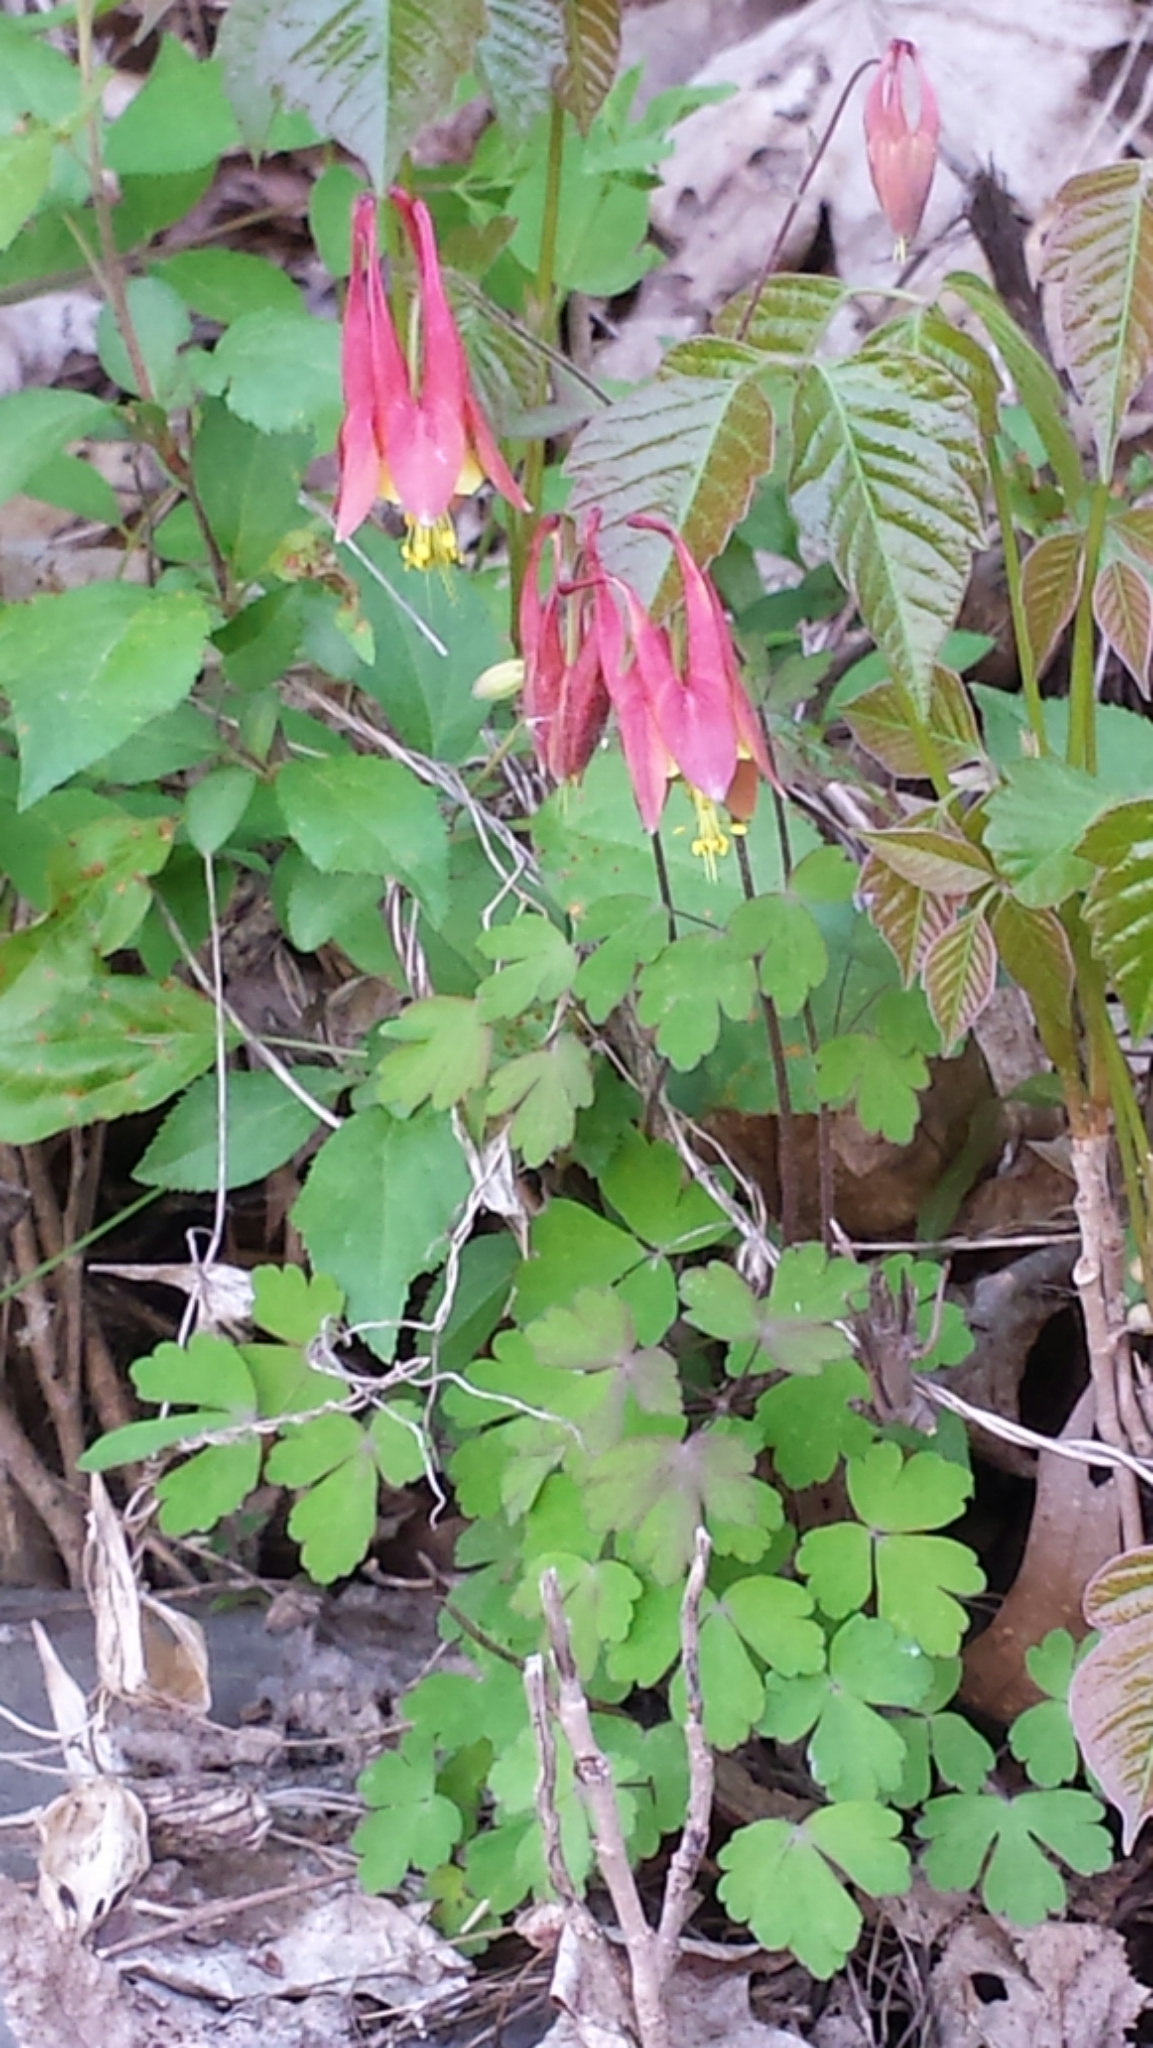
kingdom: Plantae
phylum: Tracheophyta
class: Magnoliopsida
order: Ranunculales
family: Ranunculaceae
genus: Aquilegia
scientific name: Aquilegia canadensis
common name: American columbine
